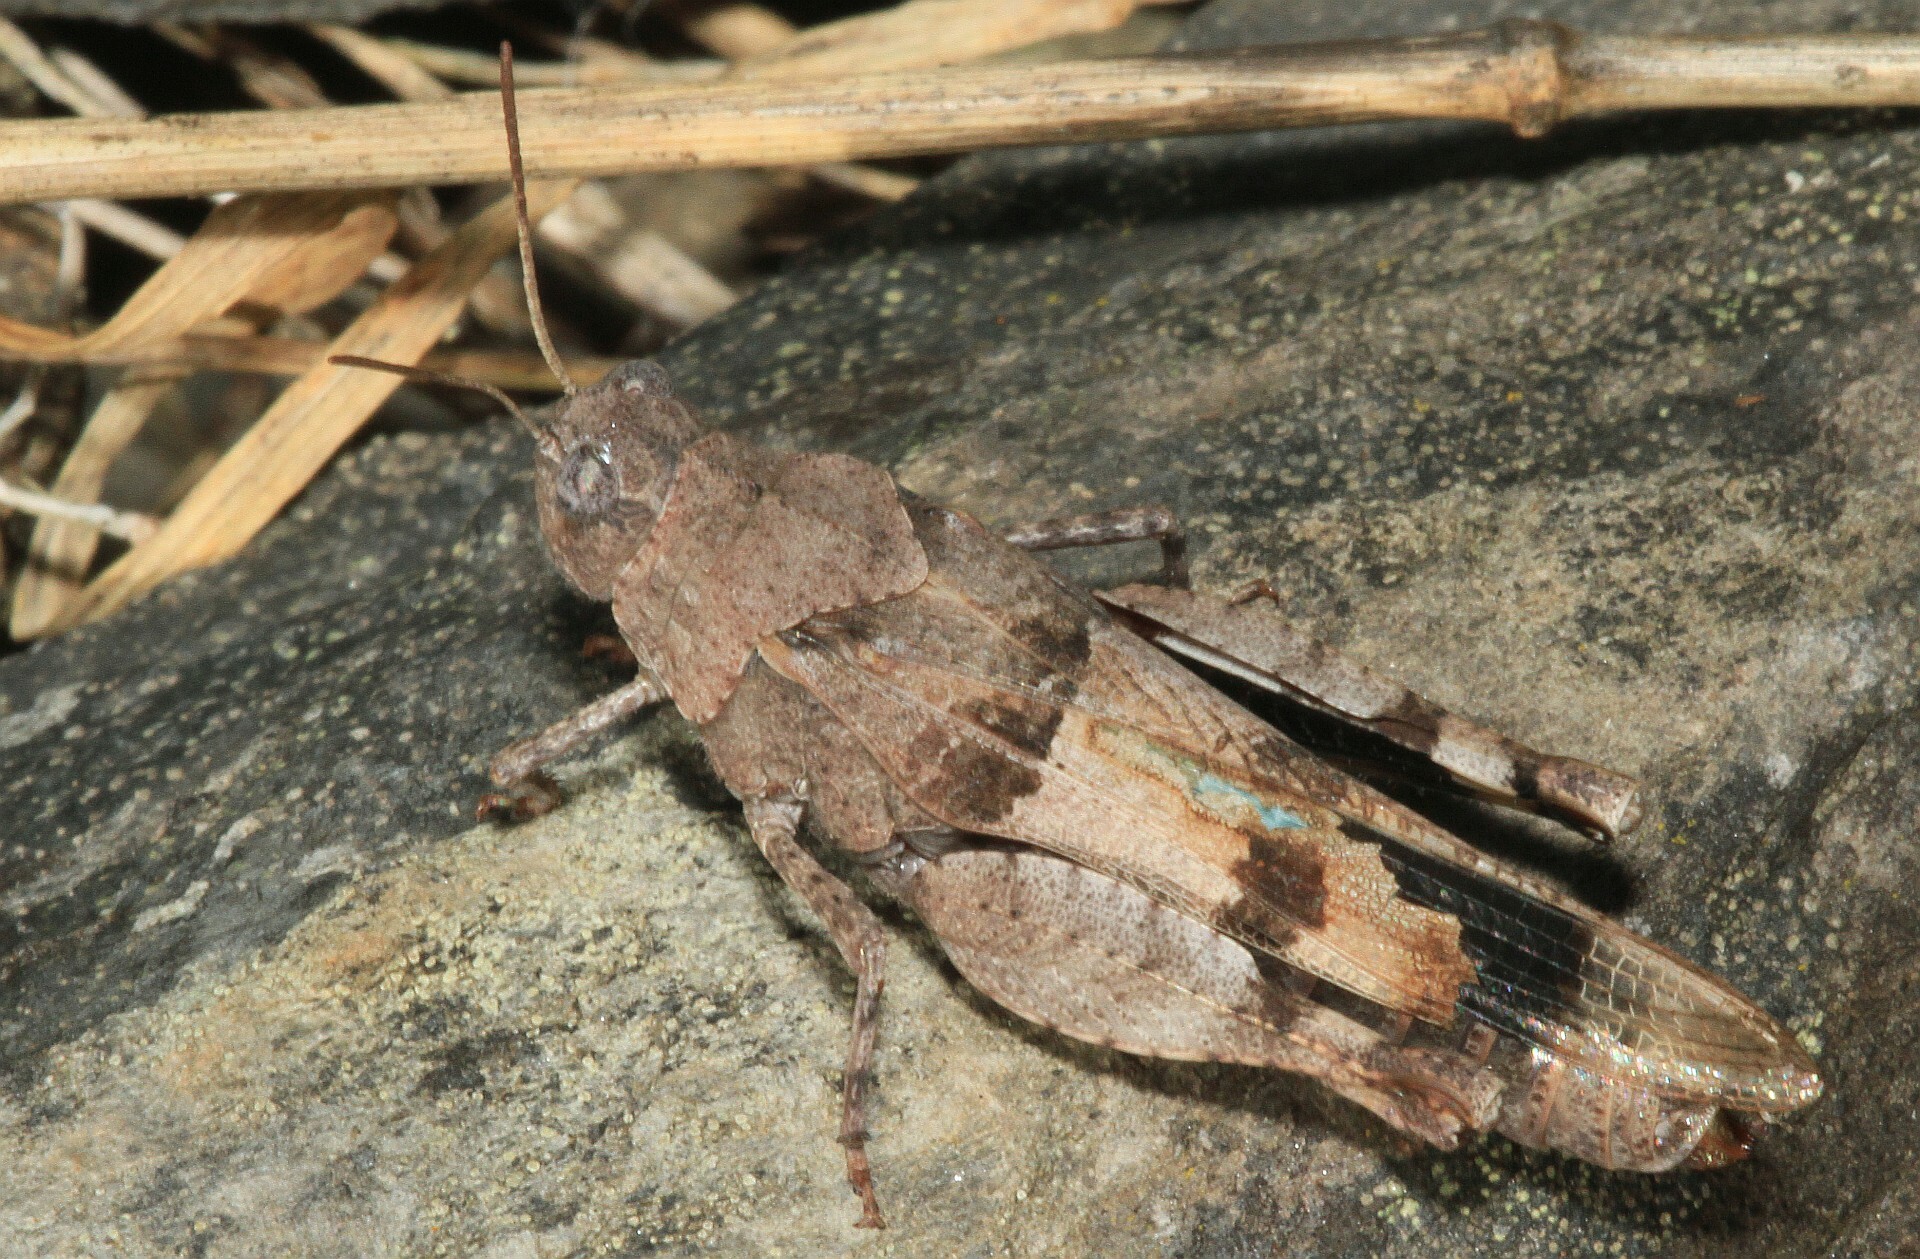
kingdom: Animalia
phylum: Arthropoda
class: Insecta
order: Orthoptera
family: Acrididae
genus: Oedipoda
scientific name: Oedipoda caerulescens
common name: Blue-winged grasshopper
